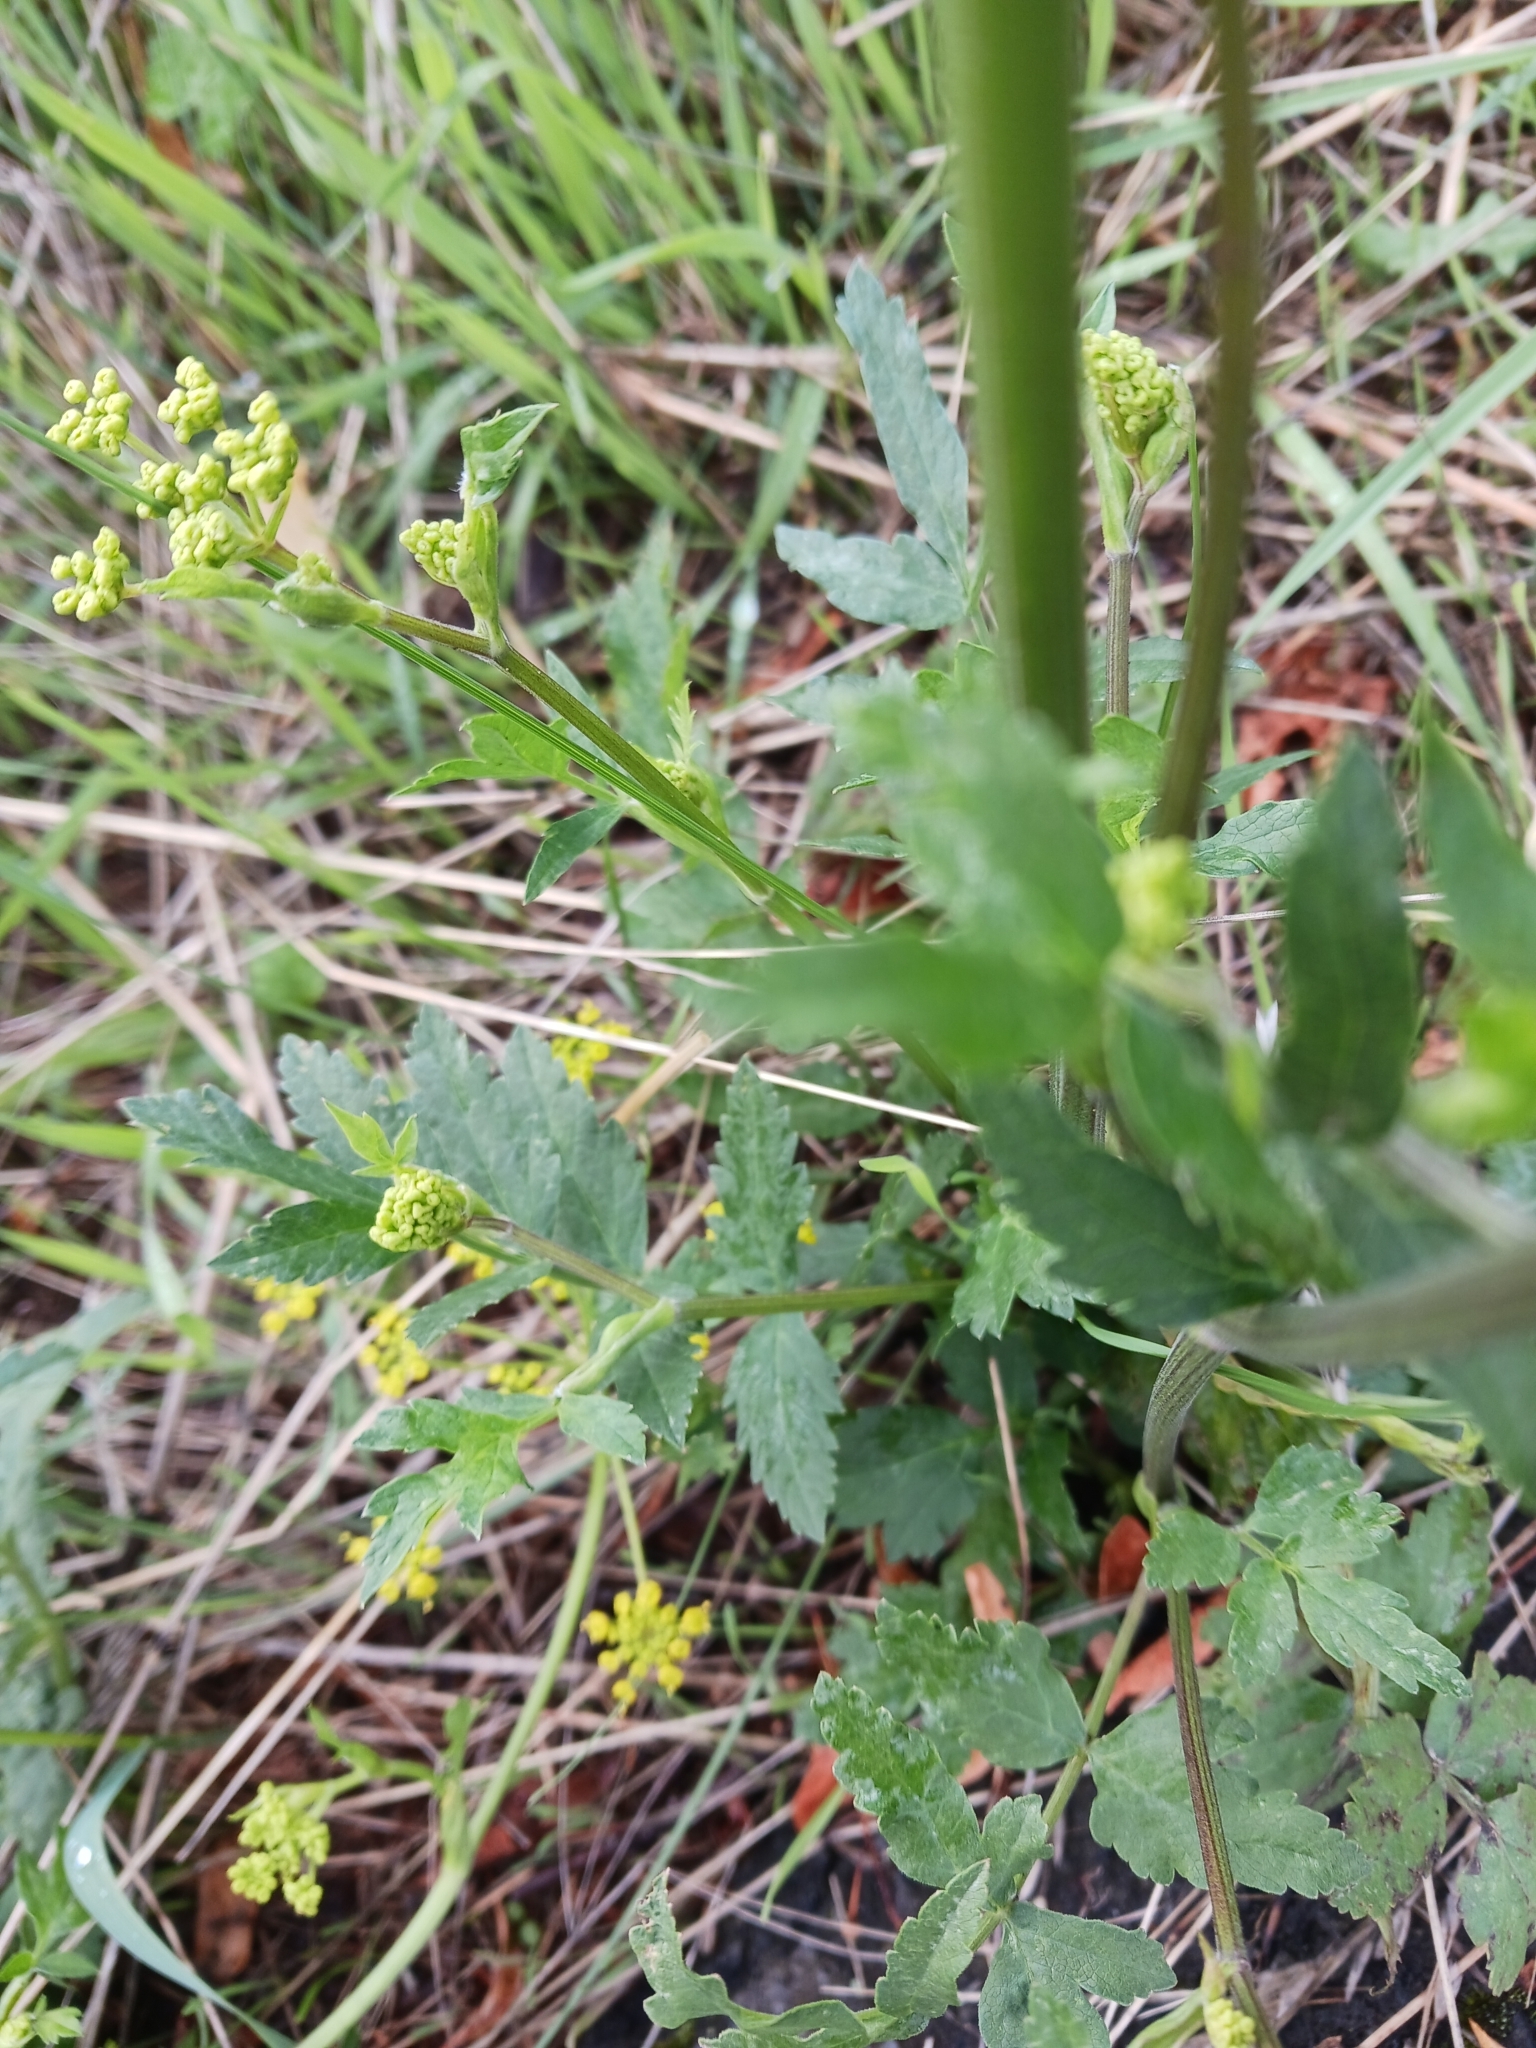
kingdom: Plantae
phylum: Tracheophyta
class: Magnoliopsida
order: Apiales
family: Apiaceae
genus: Pastinaca
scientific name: Pastinaca sativa
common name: Wild parsnip
